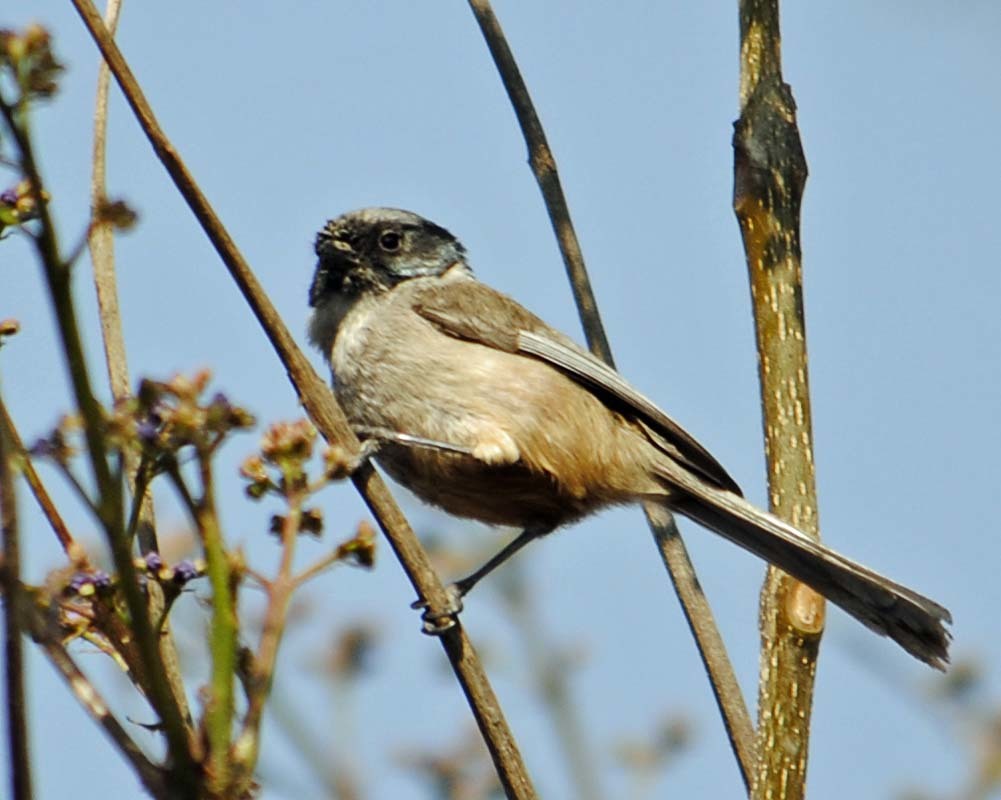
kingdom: Animalia
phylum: Chordata
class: Aves
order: Passeriformes
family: Aegithalidae
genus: Psaltriparus
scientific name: Psaltriparus minimus
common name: American bushtit
